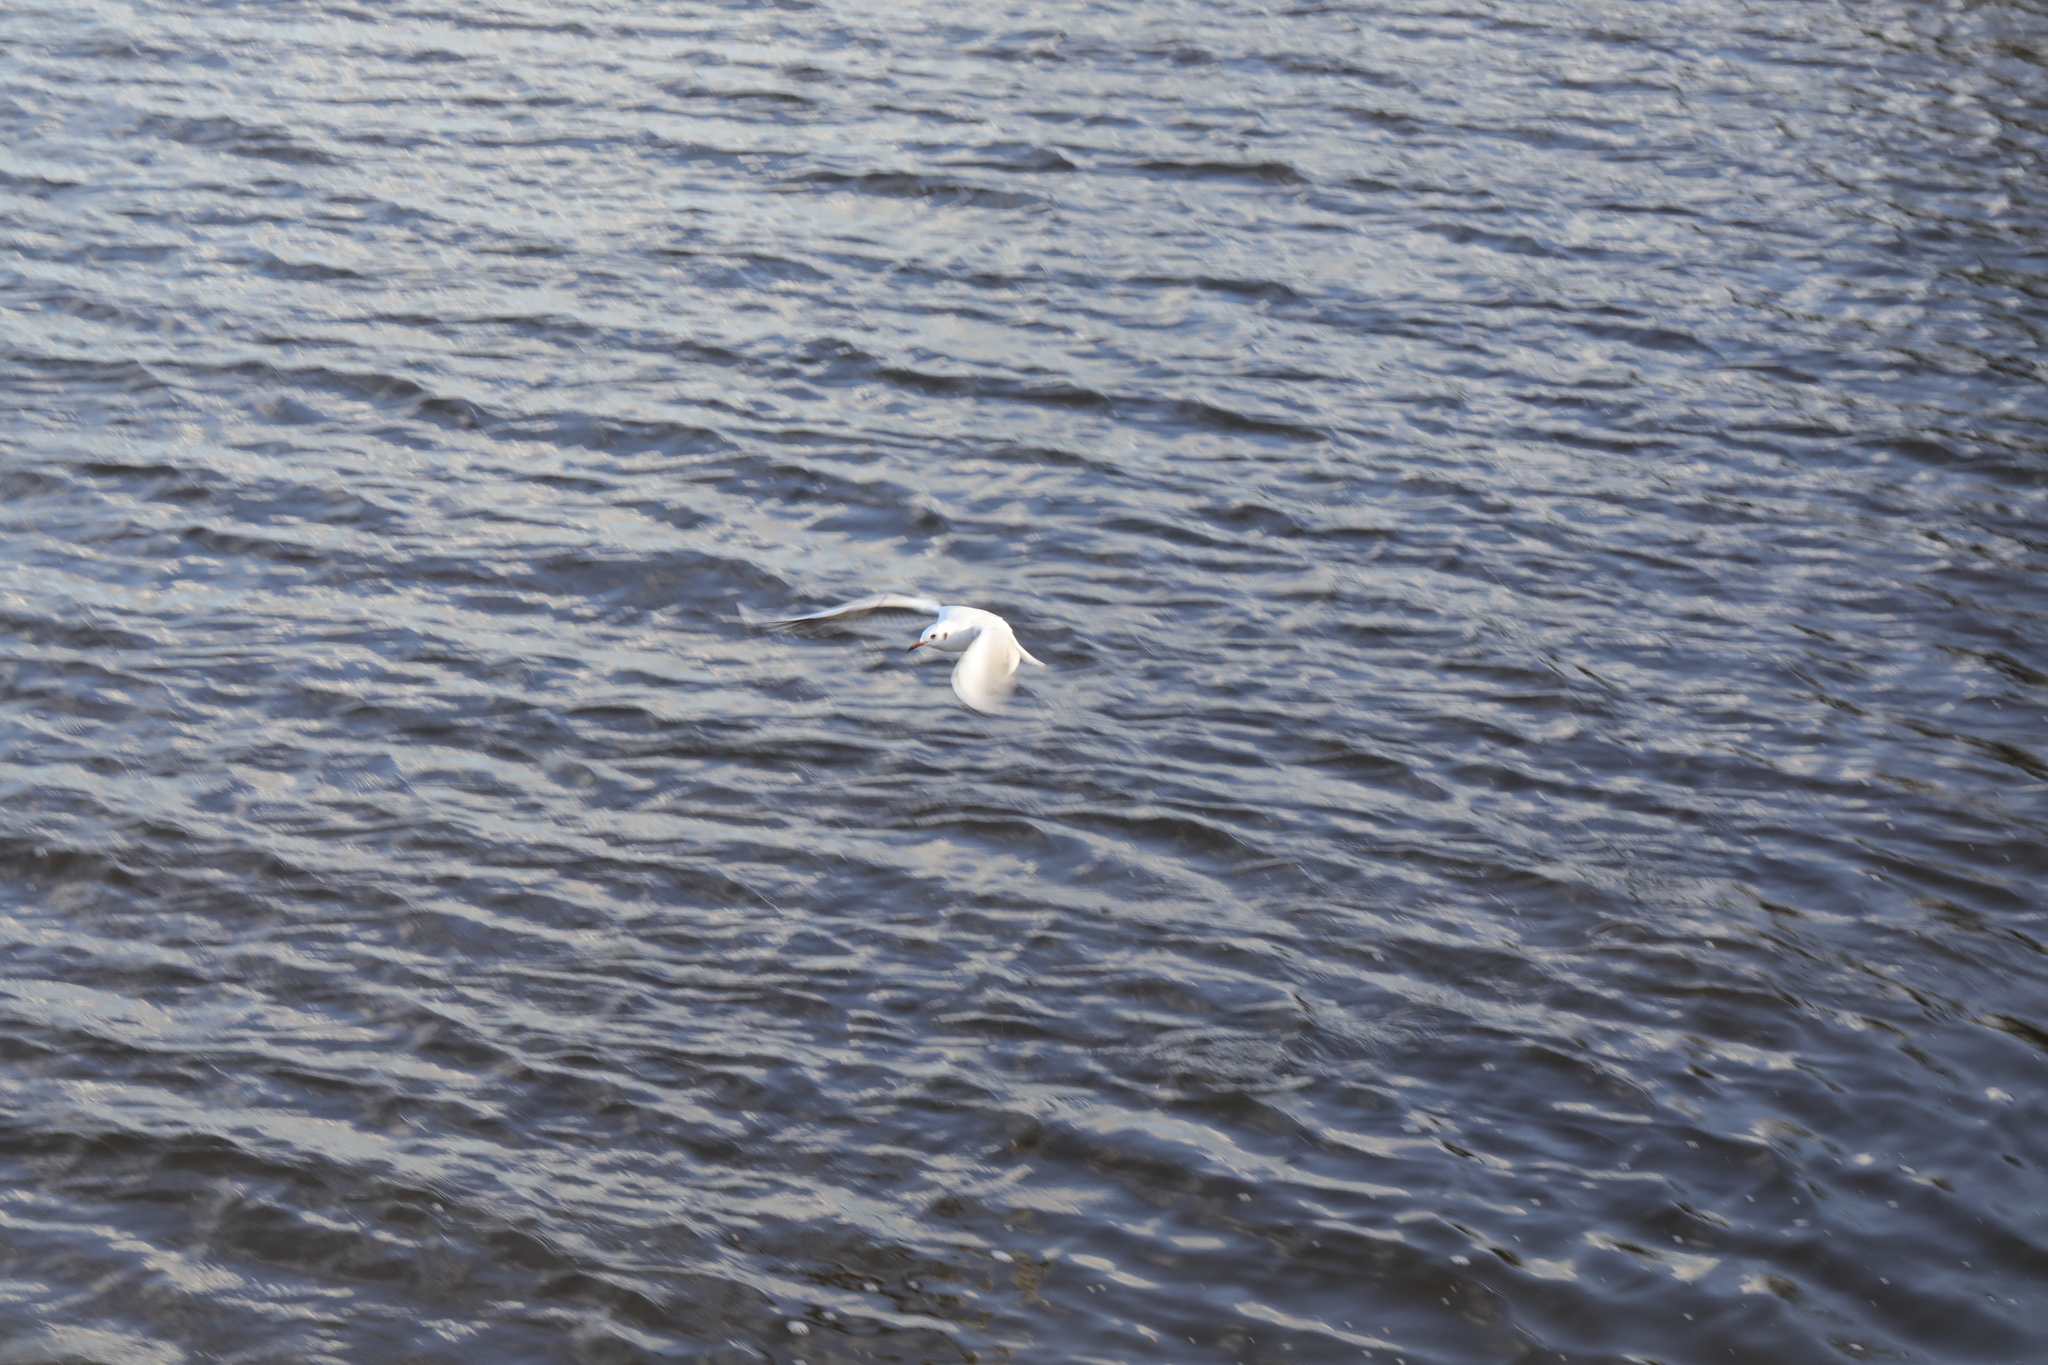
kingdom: Animalia
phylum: Chordata
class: Aves
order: Charadriiformes
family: Laridae
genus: Chroicocephalus
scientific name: Chroicocephalus ridibundus
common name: Black-headed gull
